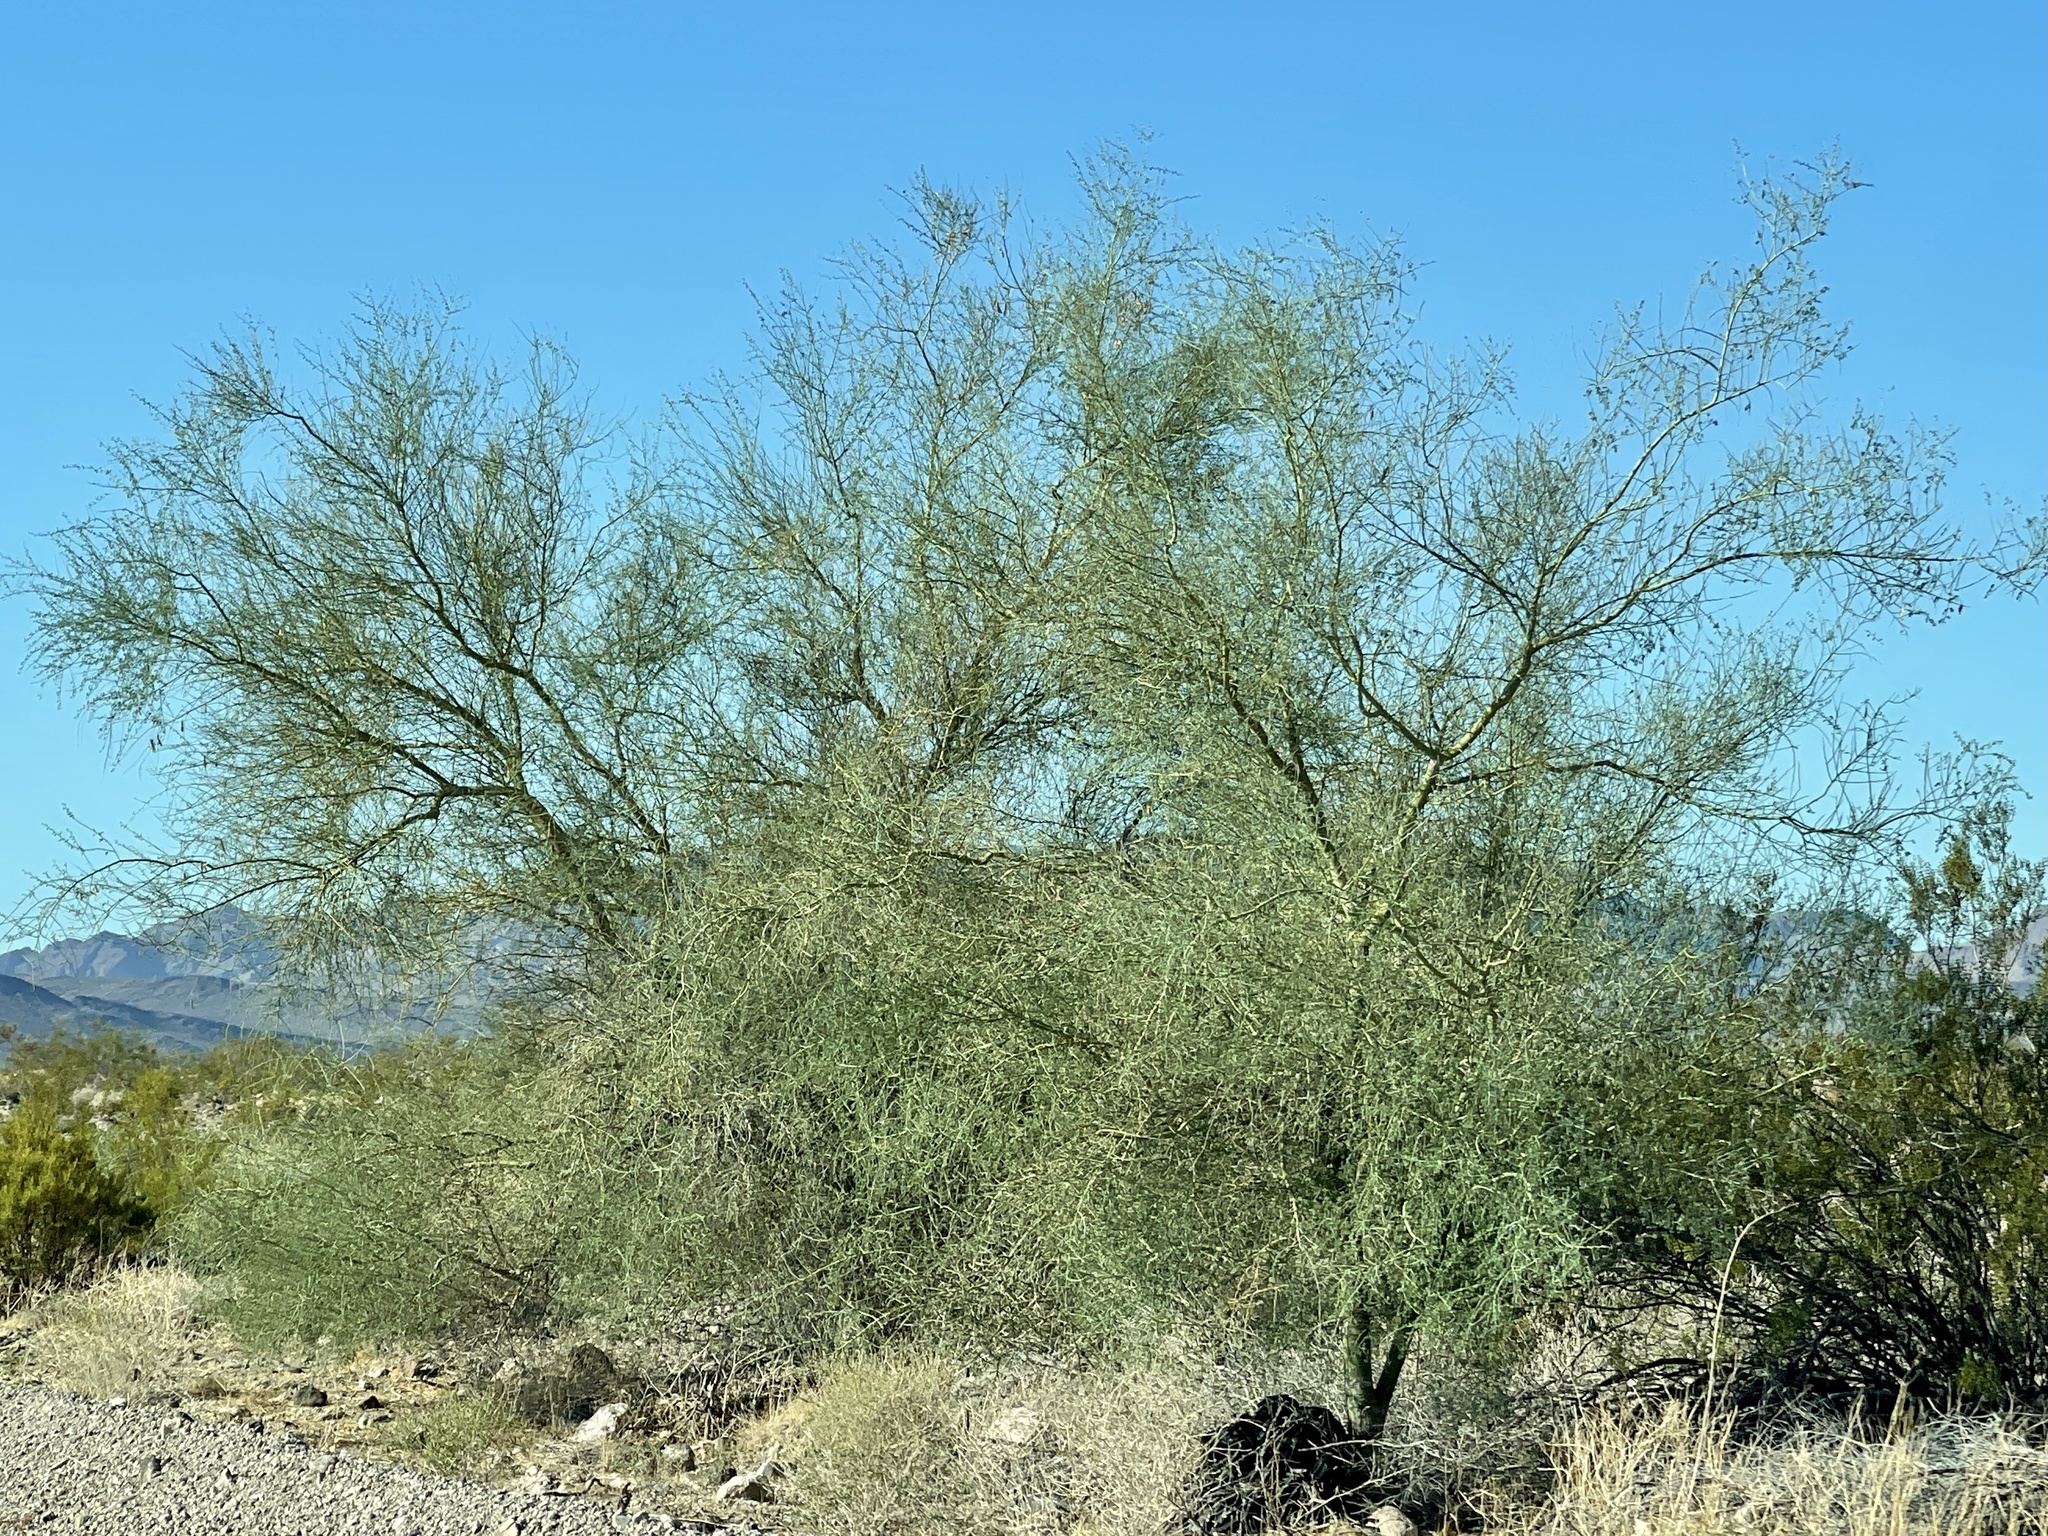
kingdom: Plantae
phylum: Tracheophyta
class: Magnoliopsida
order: Fabales
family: Fabaceae
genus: Parkinsonia
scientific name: Parkinsonia florida
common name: Blue paloverde
